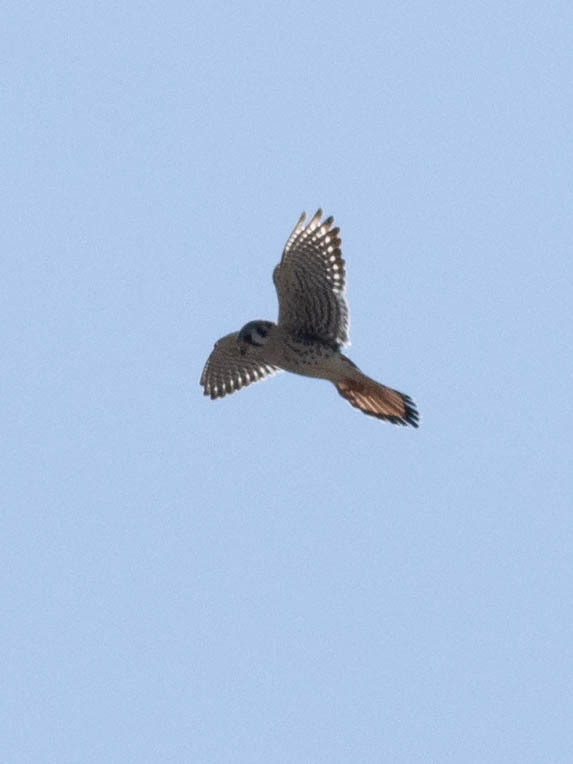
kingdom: Animalia
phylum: Chordata
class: Aves
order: Falconiformes
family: Falconidae
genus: Falco
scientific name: Falco sparverius
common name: American kestrel
